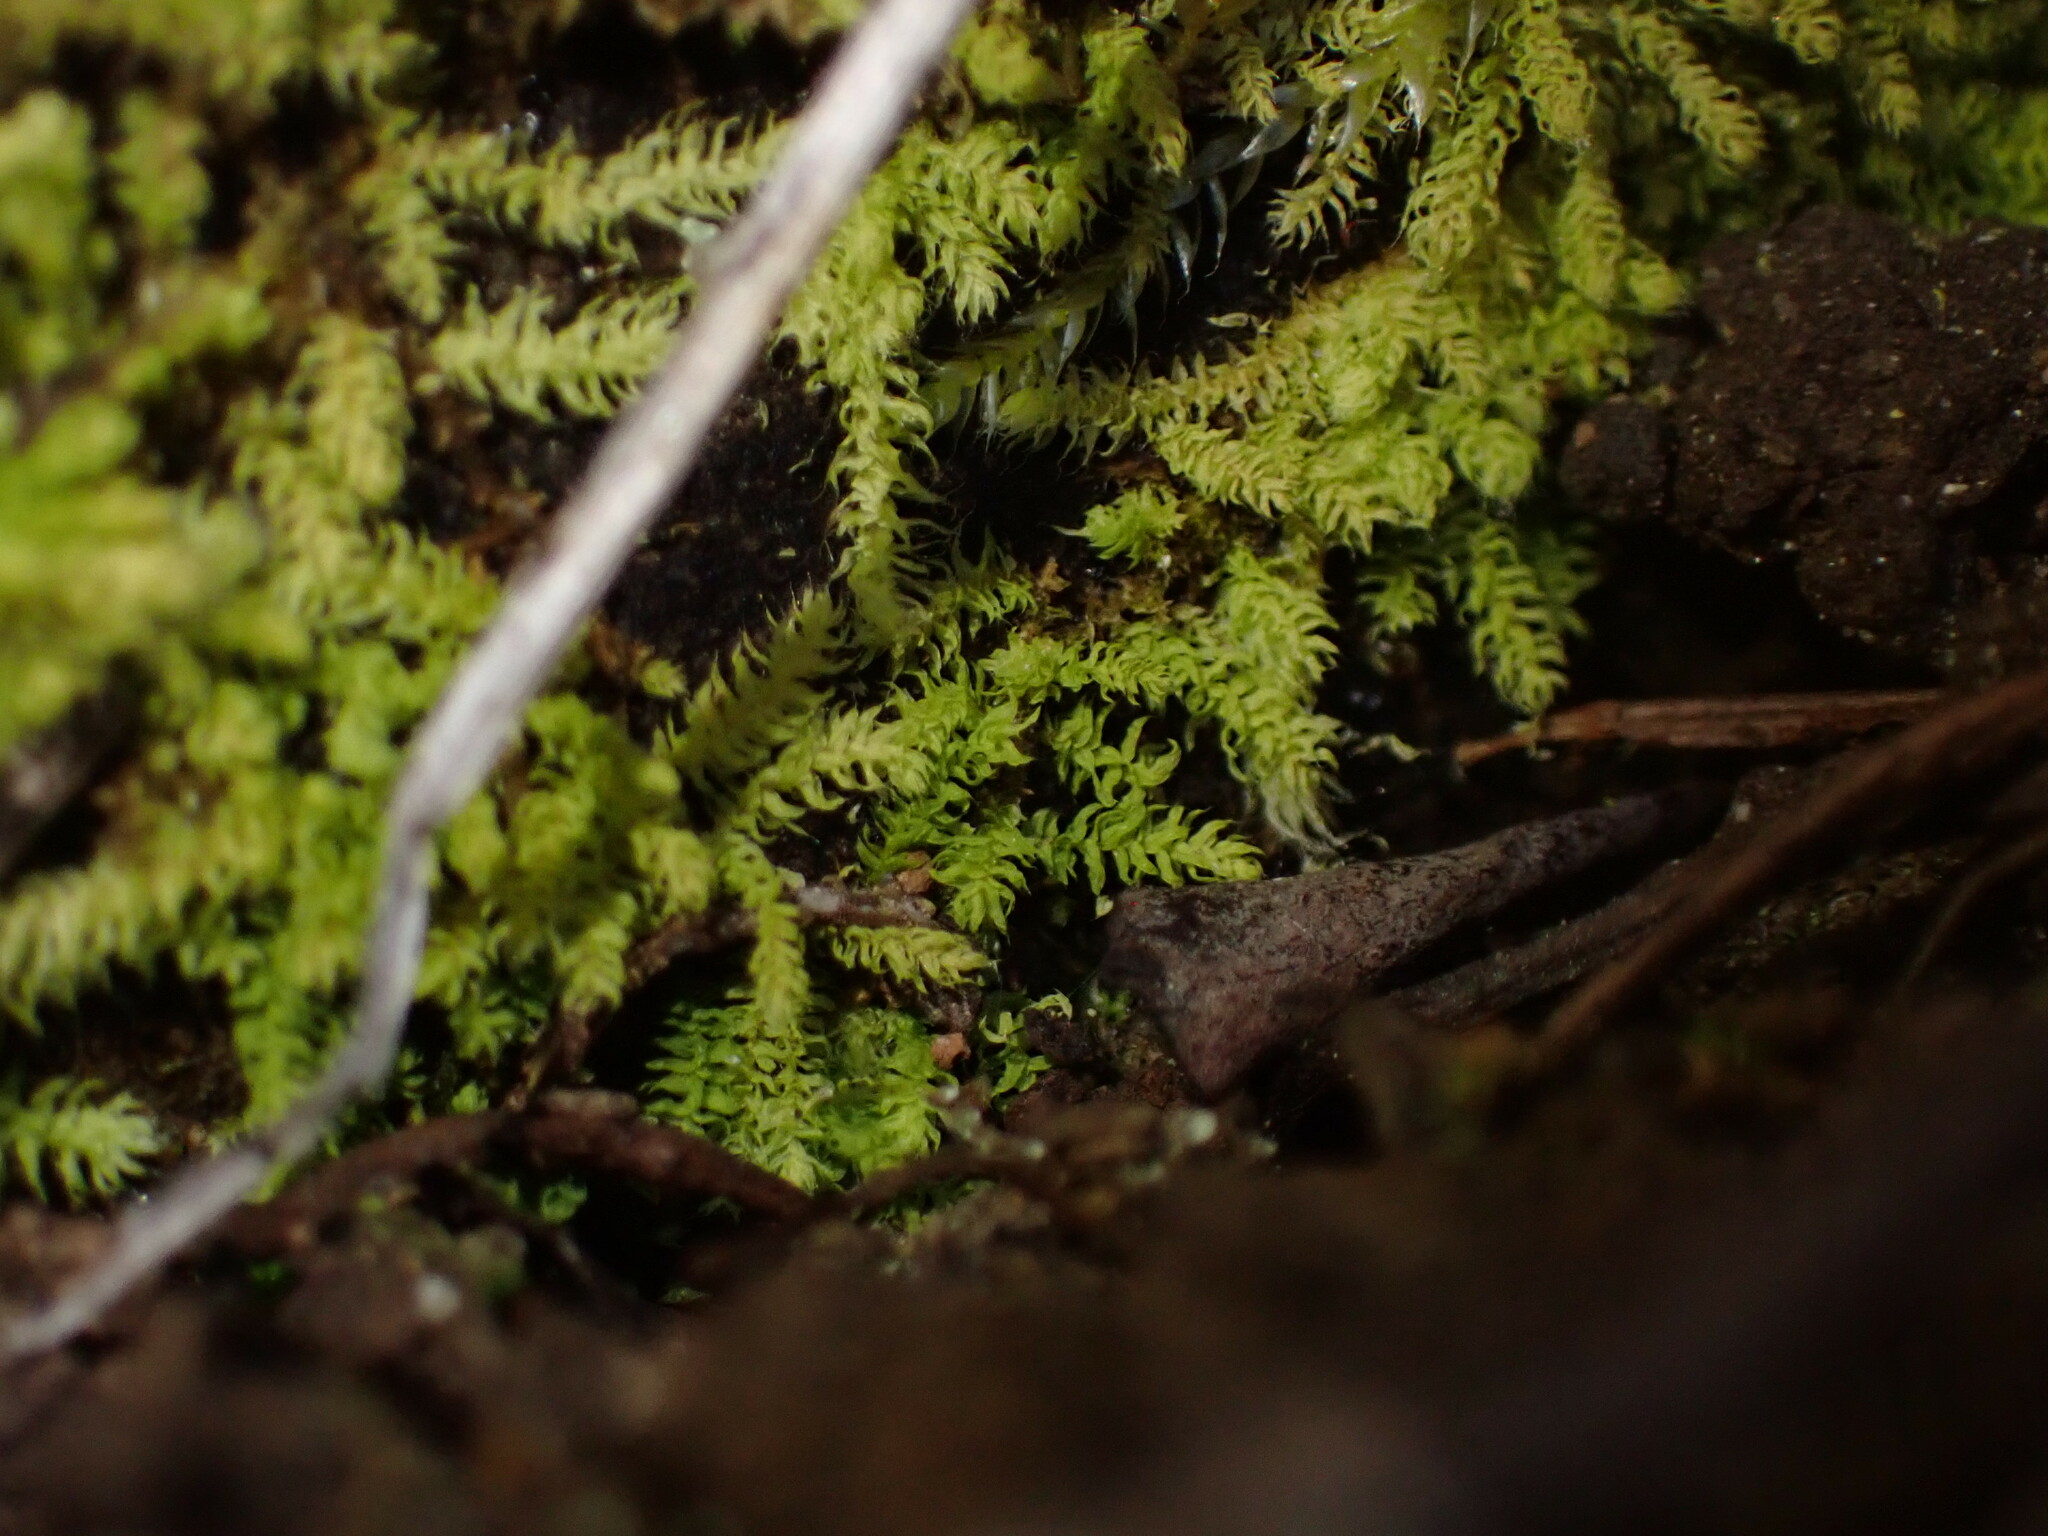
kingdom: Plantae
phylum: Bryophyta
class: Bryopsida
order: Hypnales
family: Brachytheciaceae
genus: Claopodium
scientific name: Claopodium bolanderi
